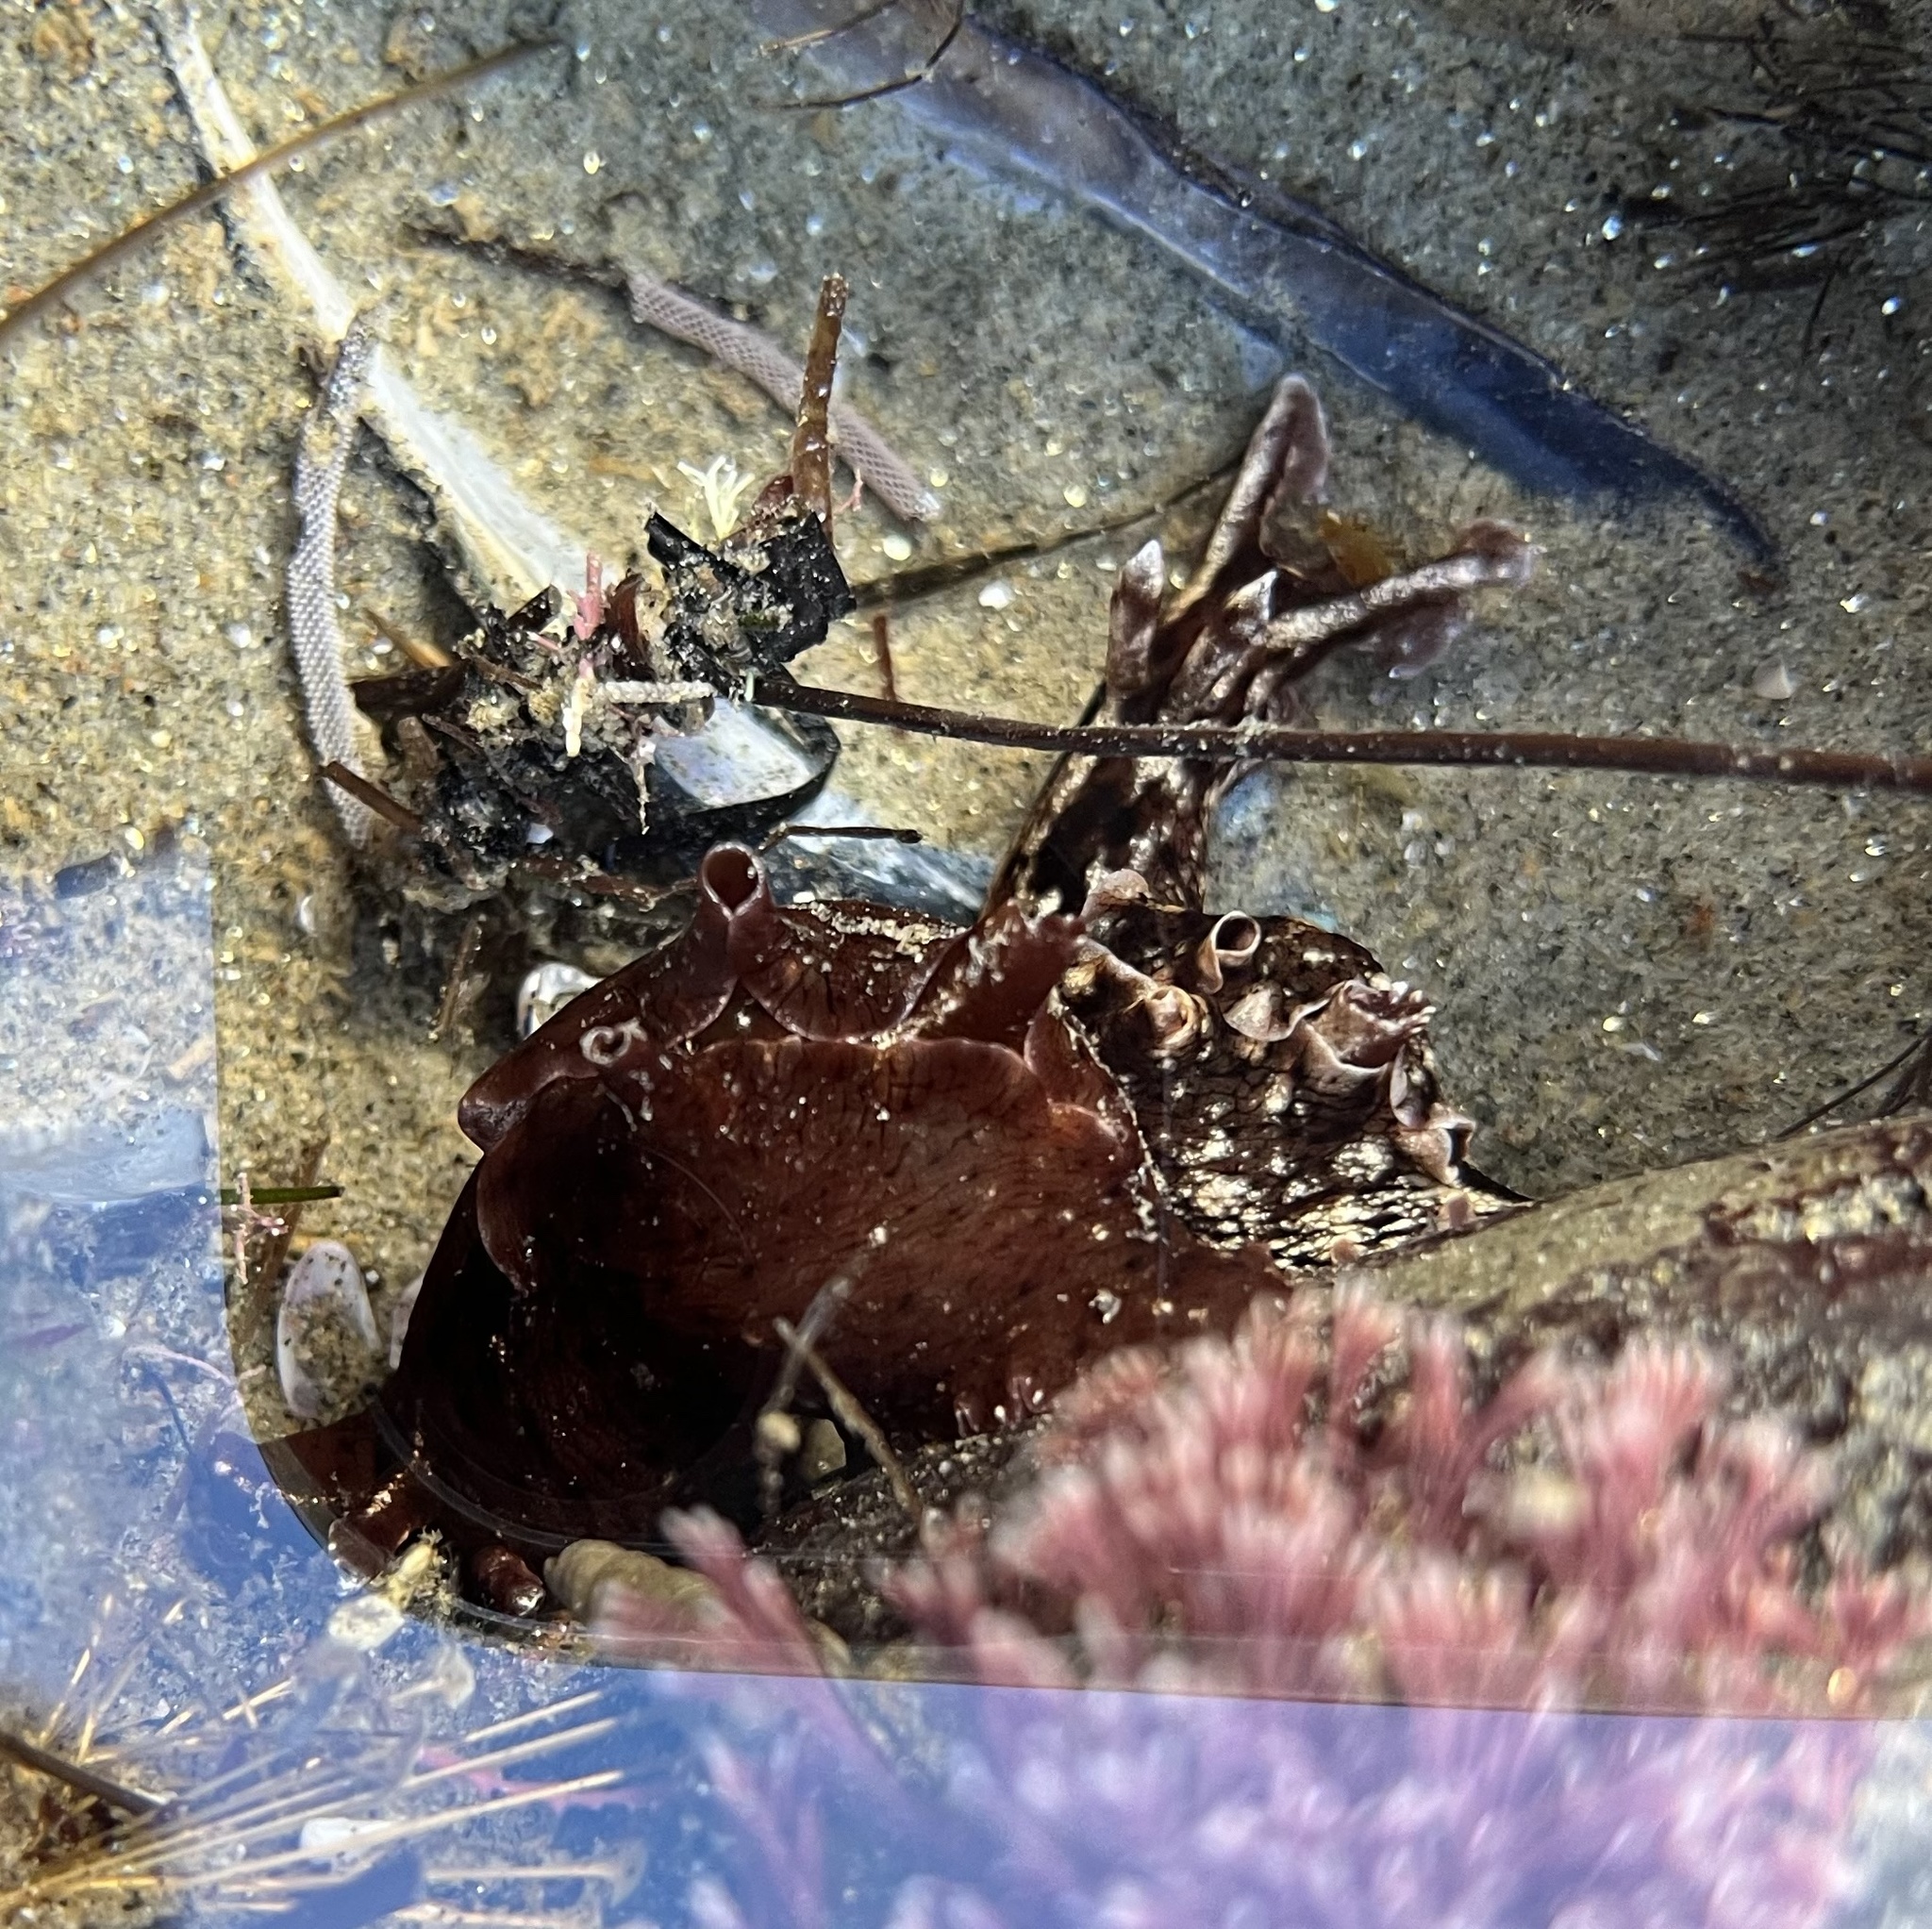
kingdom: Animalia
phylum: Mollusca
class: Gastropoda
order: Aplysiida
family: Aplysiidae
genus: Aplysia
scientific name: Aplysia californica
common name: California seahare
